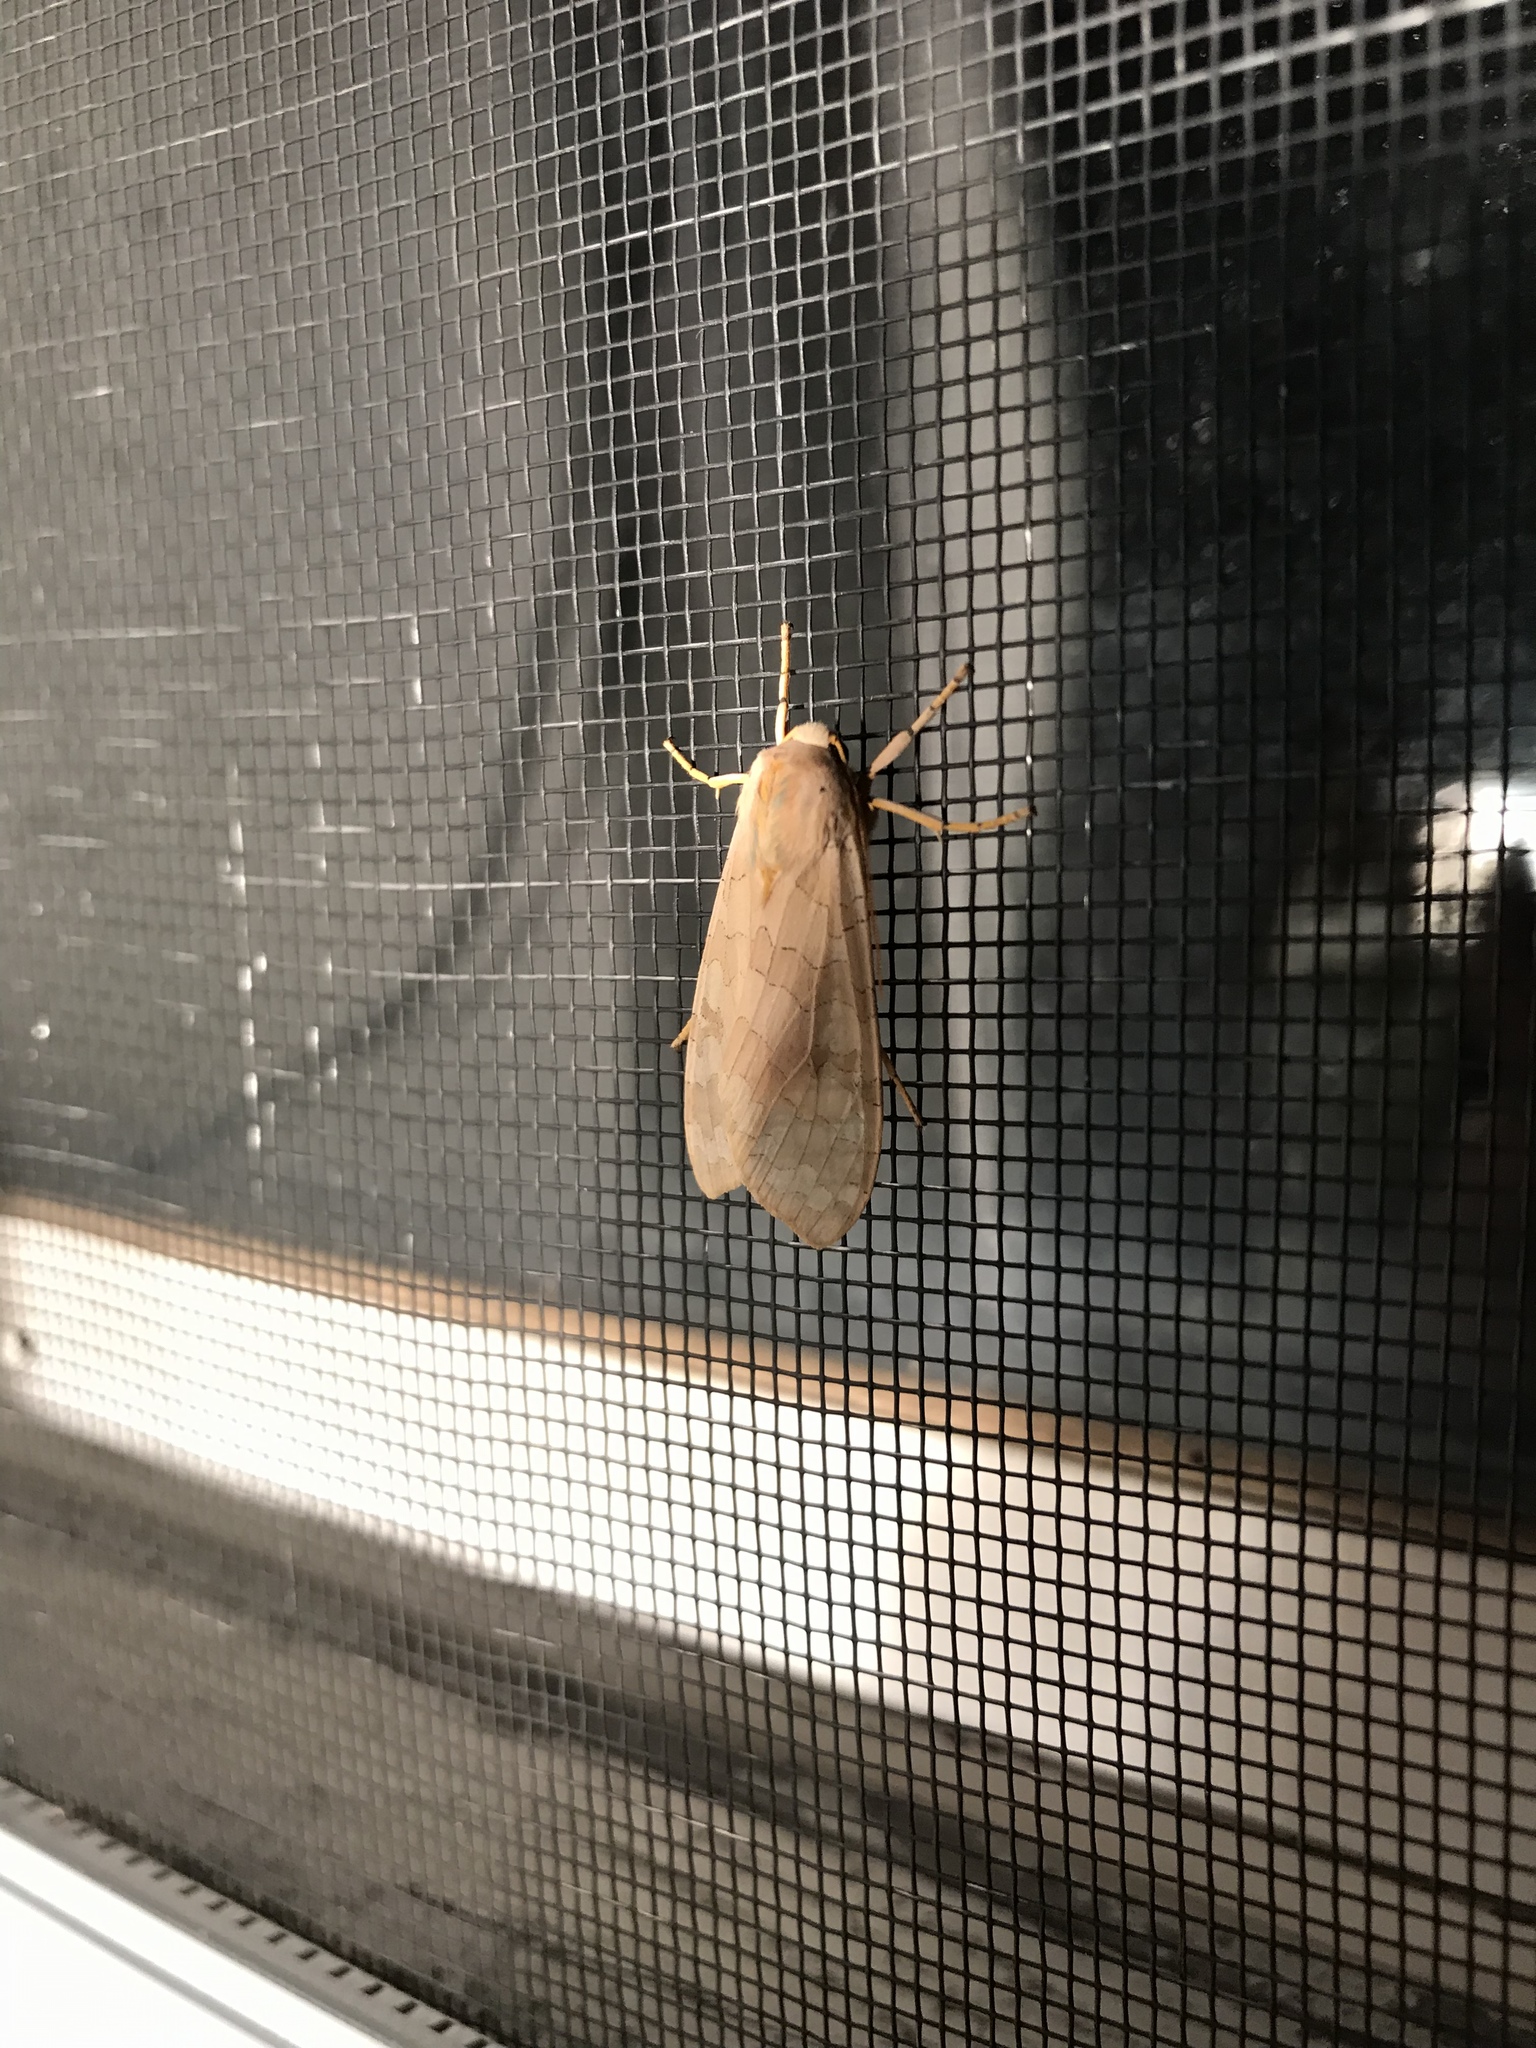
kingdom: Animalia
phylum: Arthropoda
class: Insecta
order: Lepidoptera
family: Erebidae
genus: Halysidota
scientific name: Halysidota tessellaris
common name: Banded tussock moth
